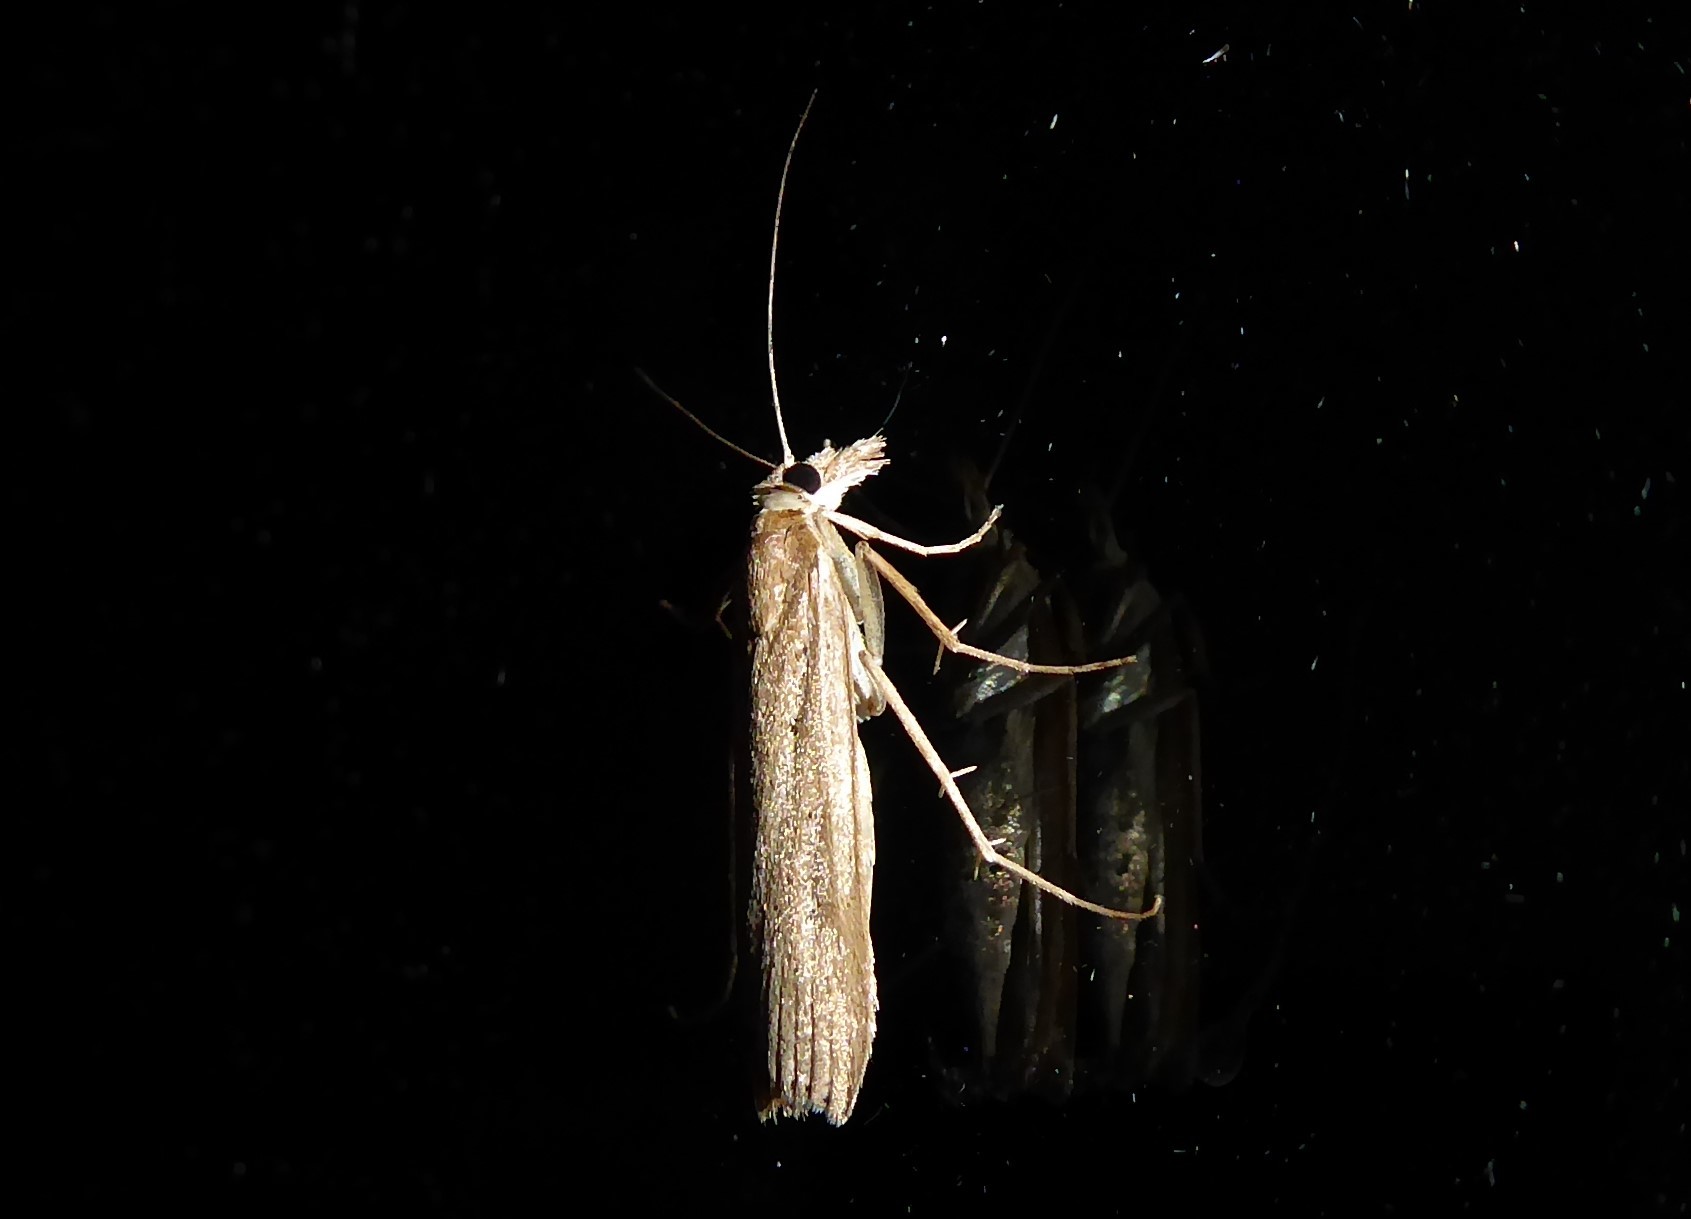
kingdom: Animalia
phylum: Arthropoda
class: Insecta
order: Lepidoptera
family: Crambidae
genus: Eudonia
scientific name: Eudonia sabulosella
